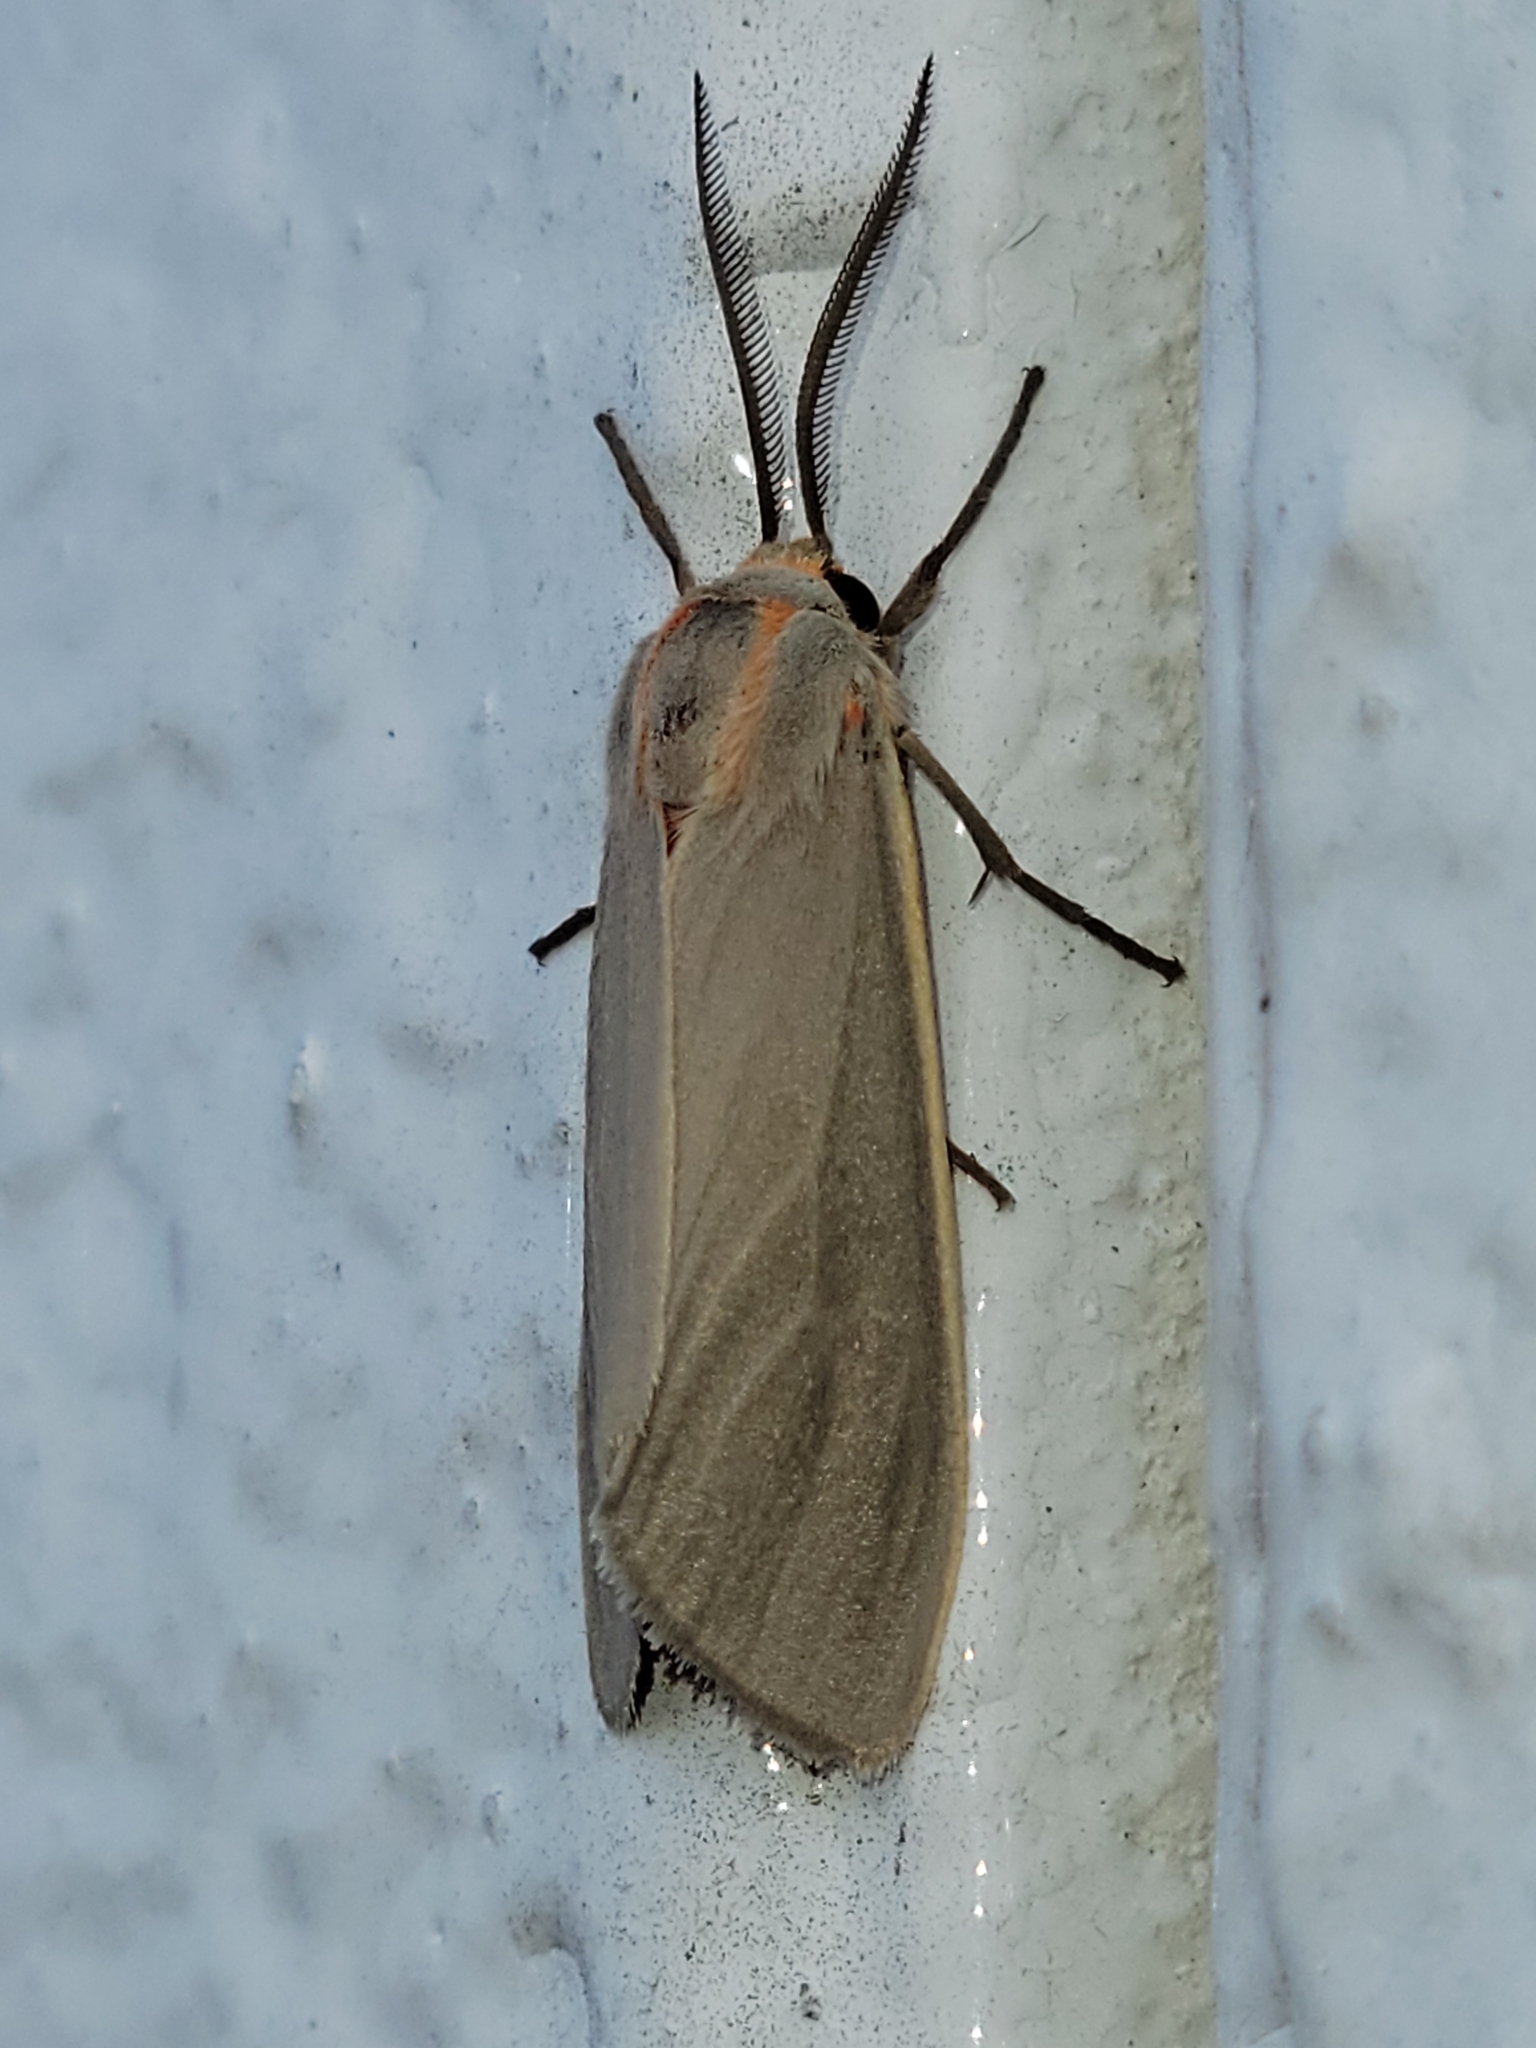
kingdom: Animalia
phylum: Arthropoda
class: Insecta
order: Lepidoptera
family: Erebidae
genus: Pygarctia
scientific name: Pygarctia pterygostigma
